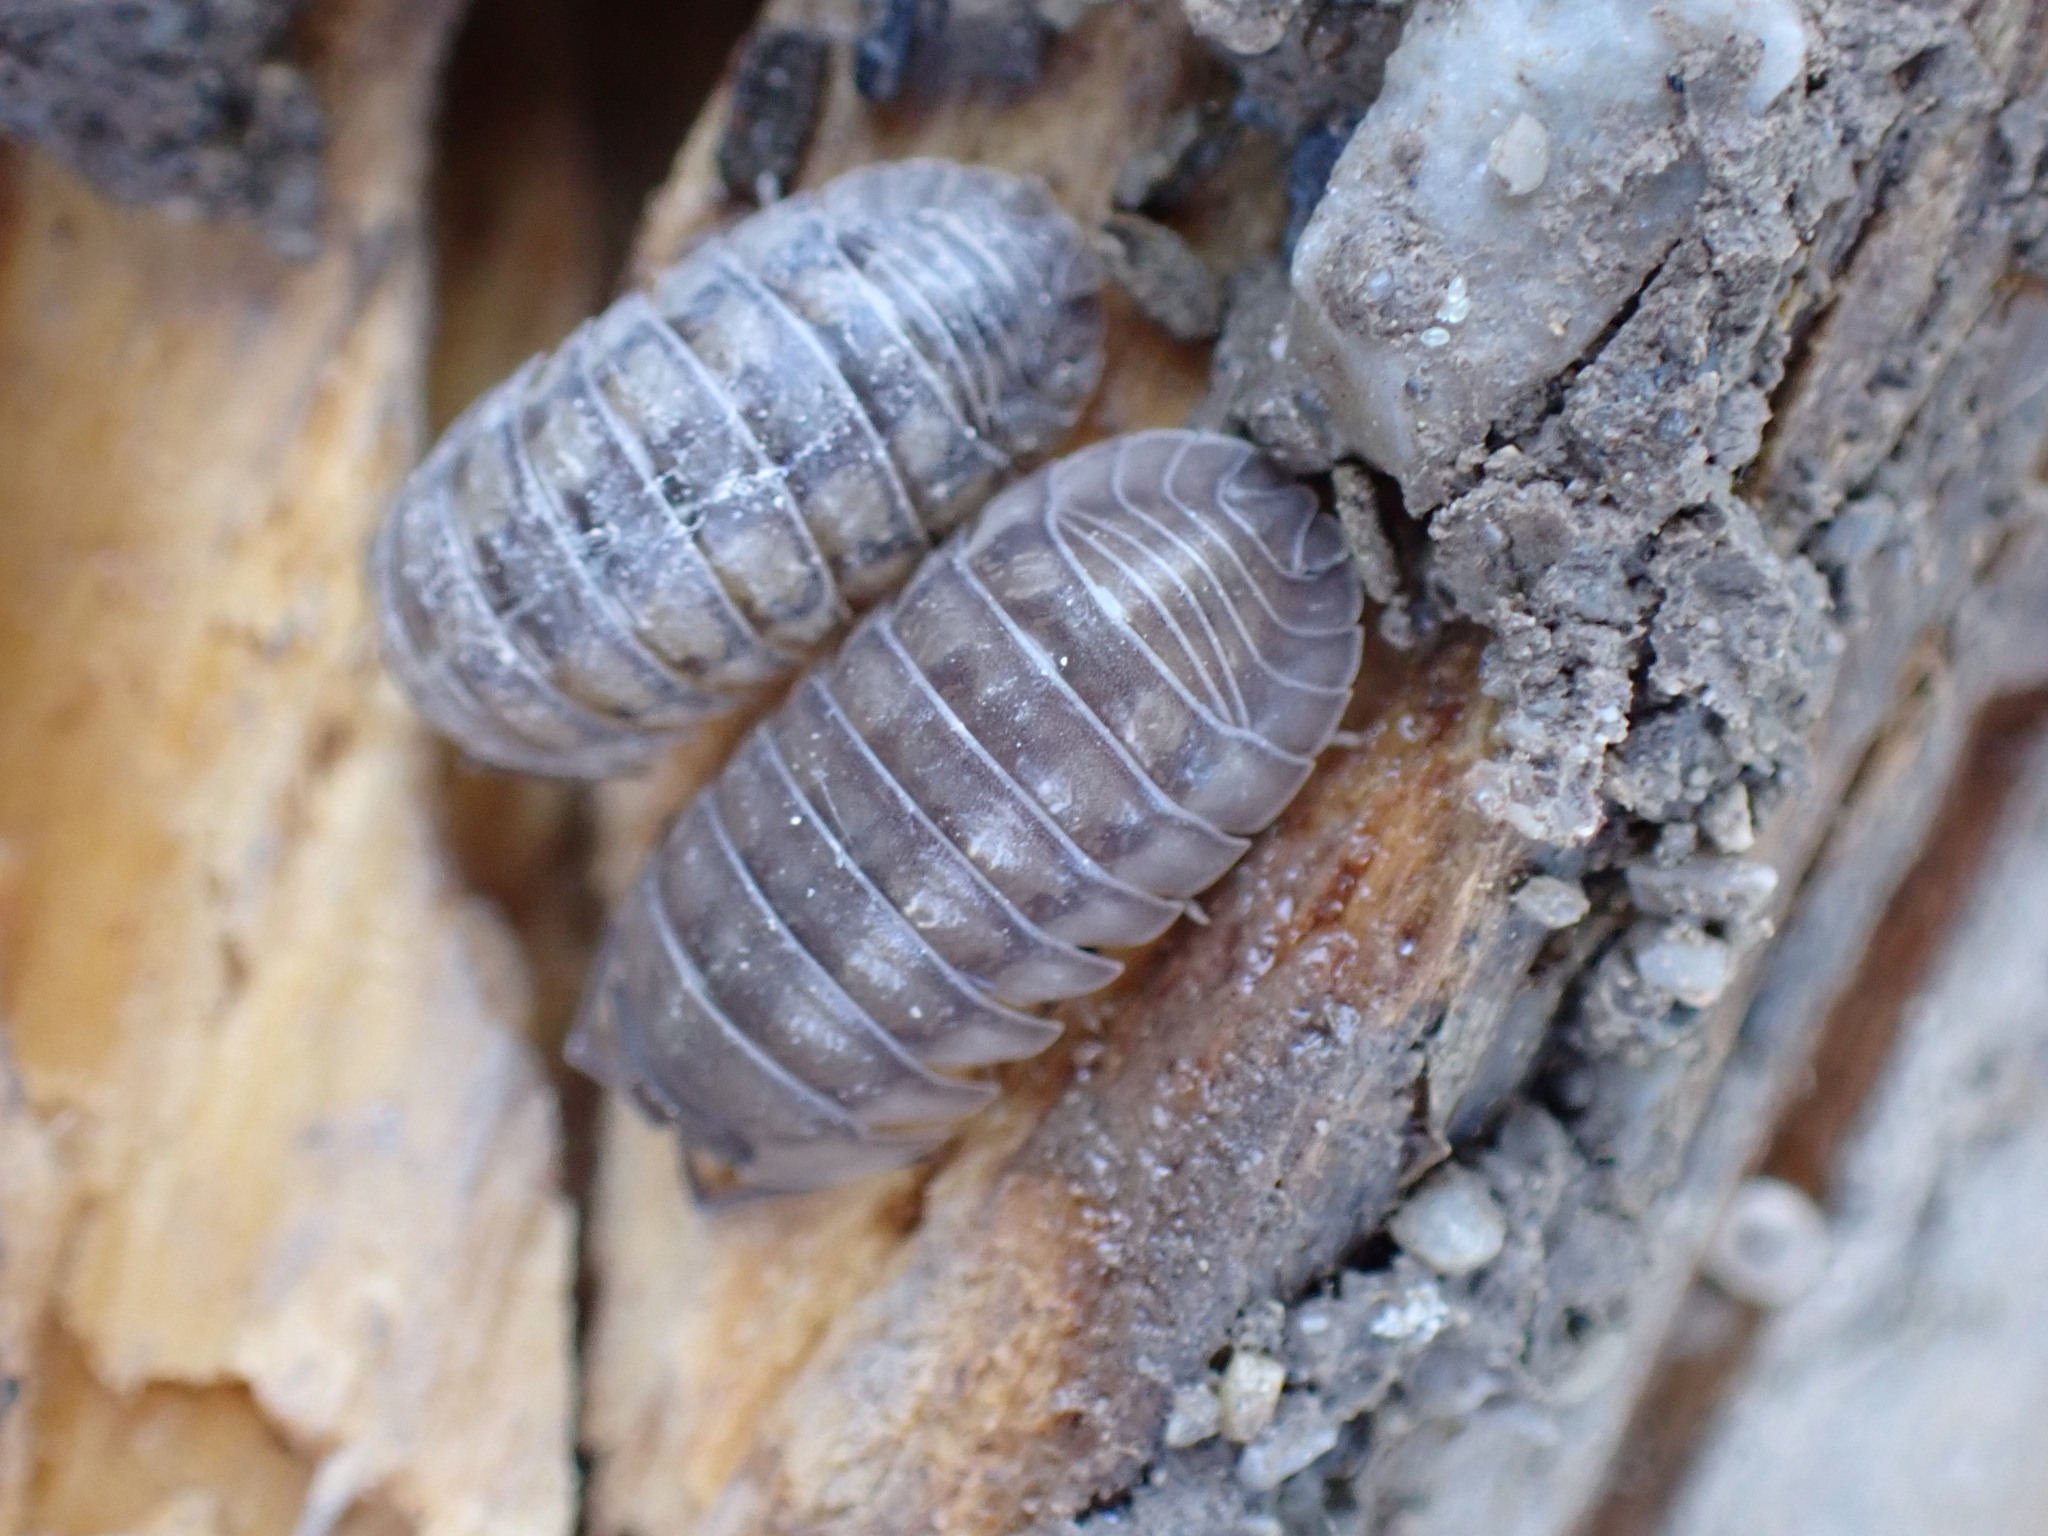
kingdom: Animalia
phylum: Arthropoda
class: Malacostraca
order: Isopoda
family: Armadillidiidae
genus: Armadillidium
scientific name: Armadillidium nasatum
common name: Isopod
